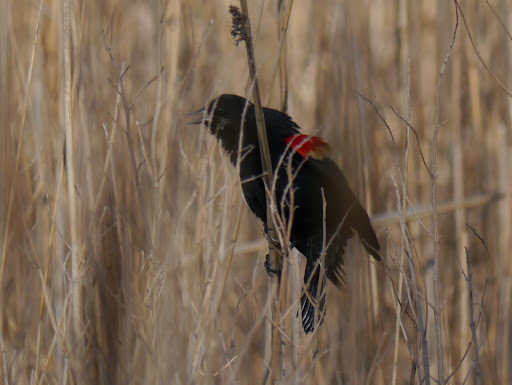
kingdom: Animalia
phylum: Chordata
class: Aves
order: Passeriformes
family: Icteridae
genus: Agelaius
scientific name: Agelaius phoeniceus
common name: Red-winged blackbird
